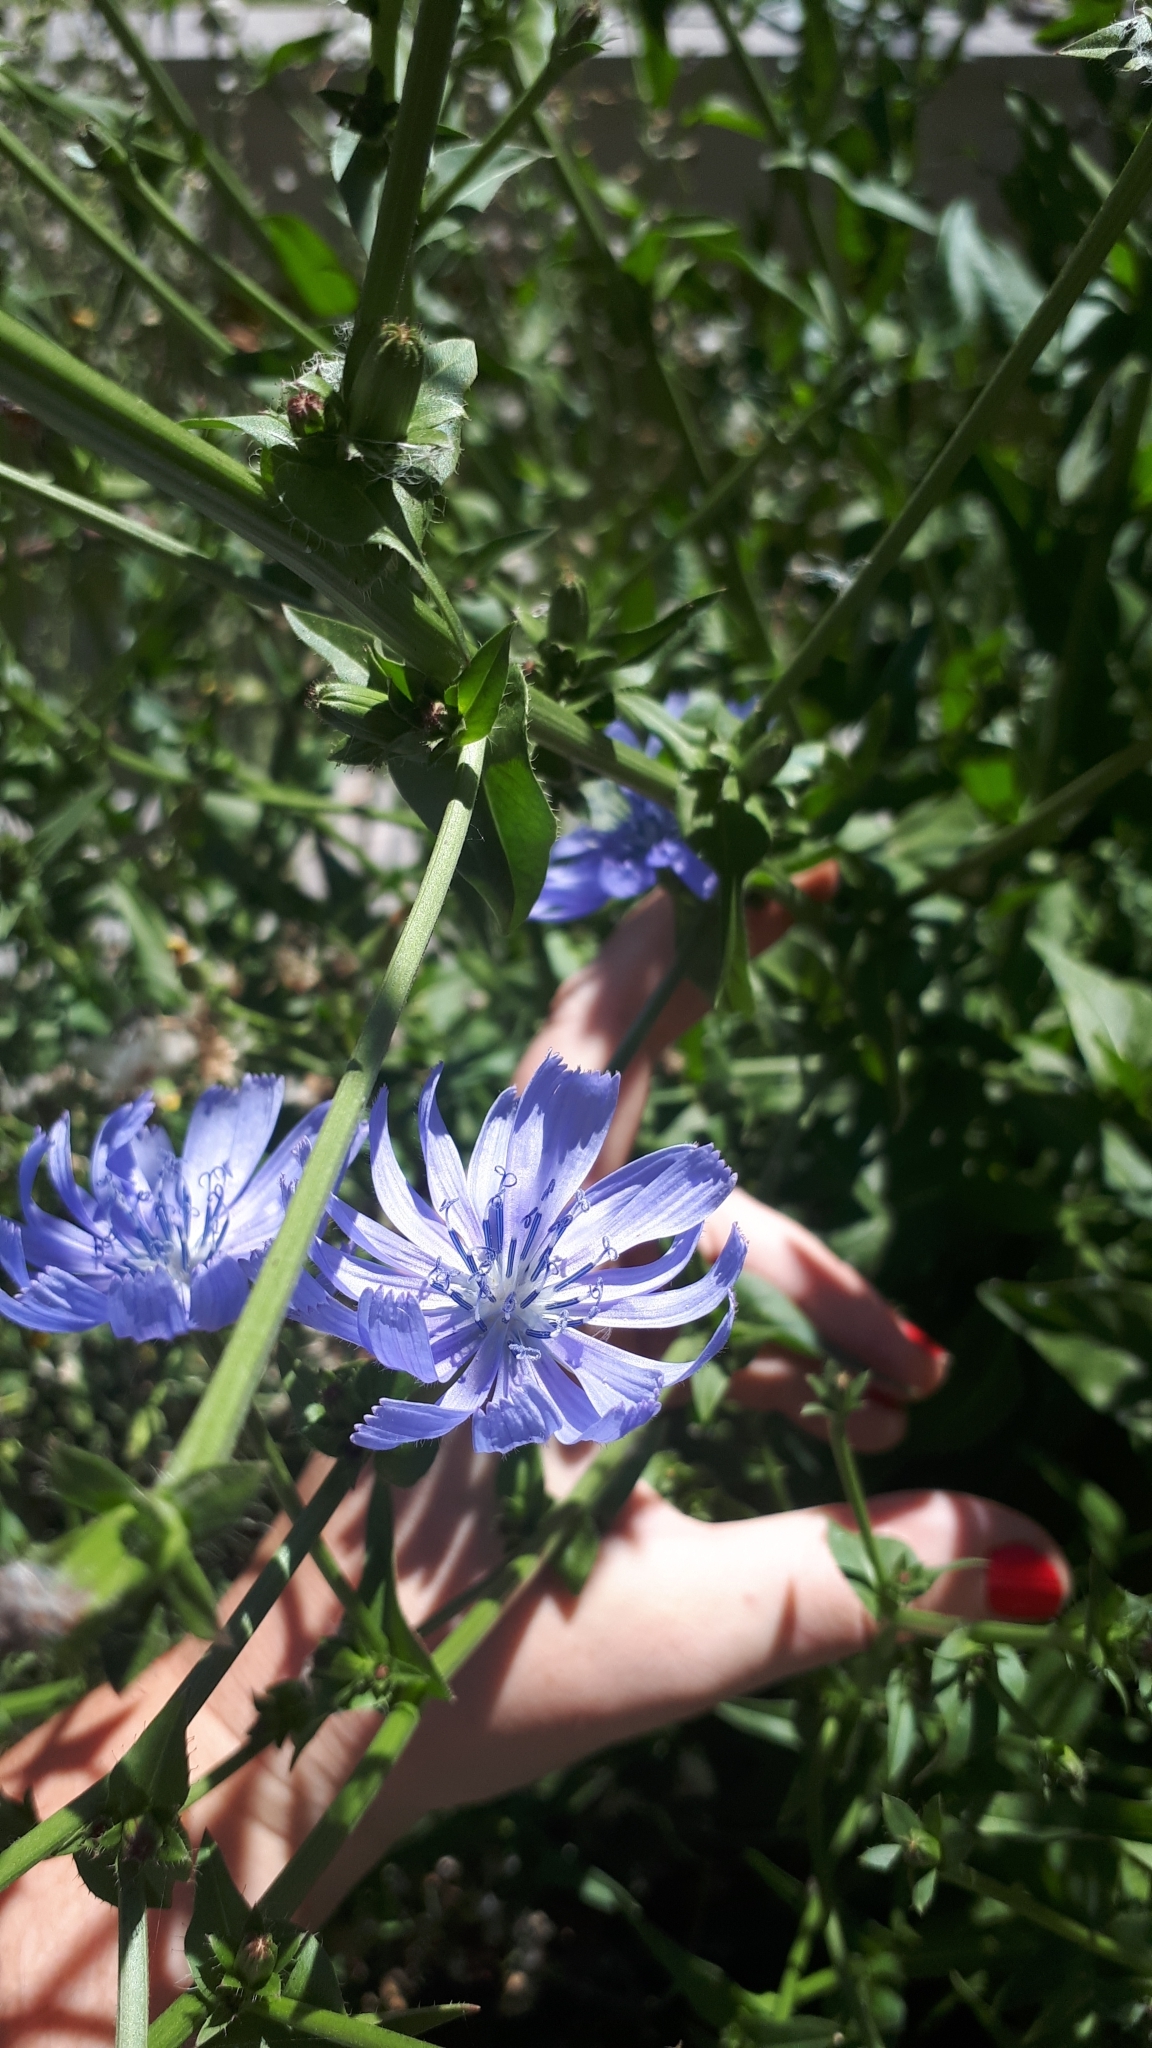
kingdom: Plantae
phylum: Tracheophyta
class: Magnoliopsida
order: Asterales
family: Asteraceae
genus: Cichorium
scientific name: Cichorium intybus
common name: Chicory
